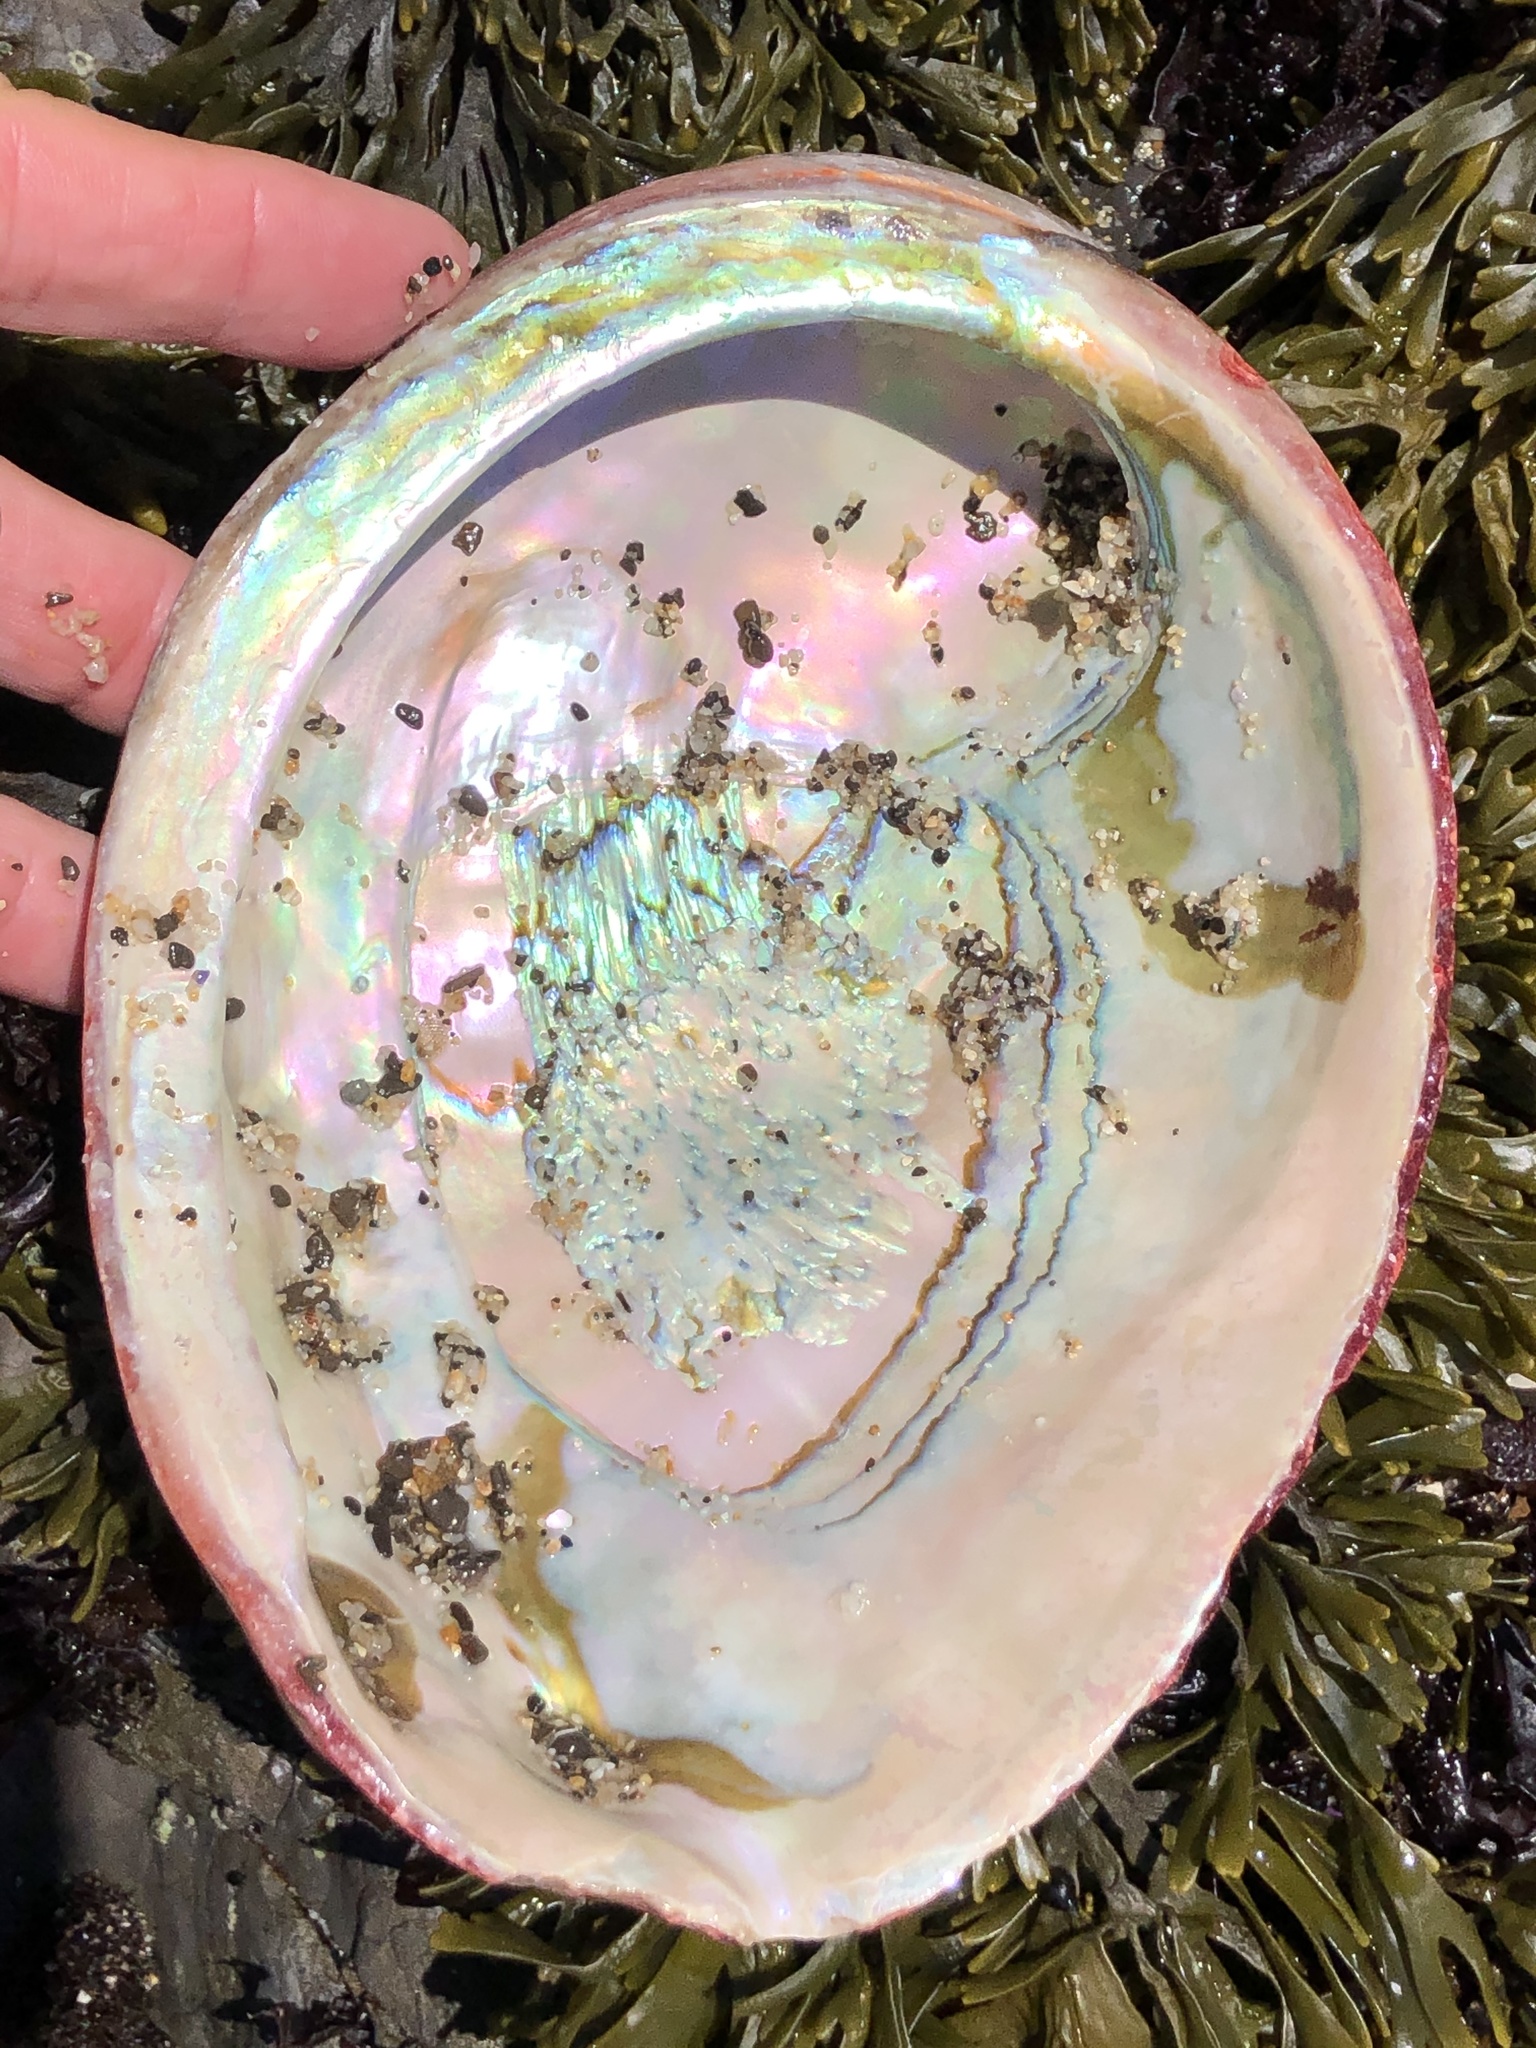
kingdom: Animalia
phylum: Mollusca
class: Gastropoda
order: Lepetellida
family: Haliotidae
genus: Haliotis
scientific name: Haliotis rufescens
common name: Red abalone
